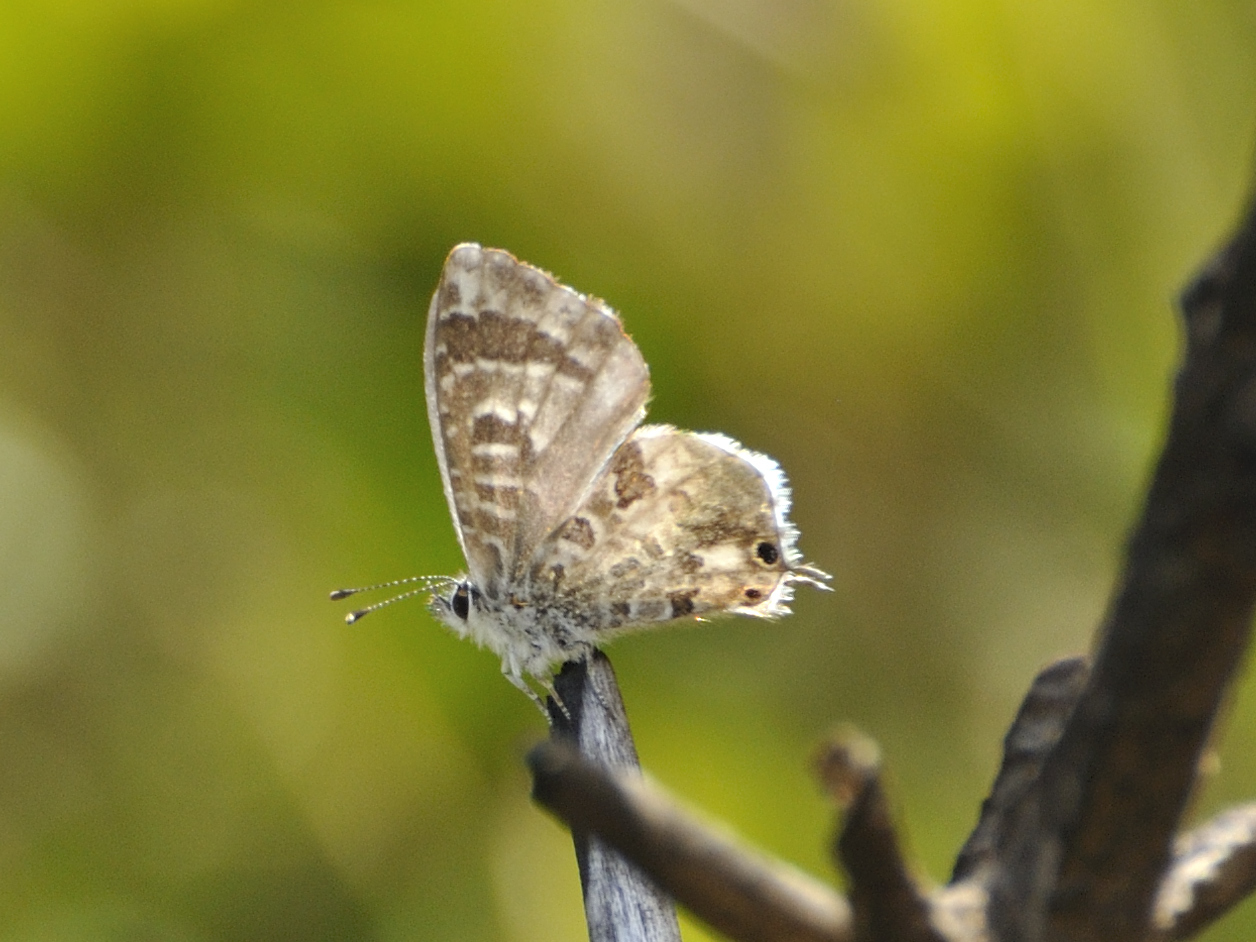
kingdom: Animalia
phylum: Arthropoda
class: Insecta
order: Lepidoptera
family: Lycaenidae
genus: Cacyreus
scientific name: Cacyreus lingeus
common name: Bush bronze
